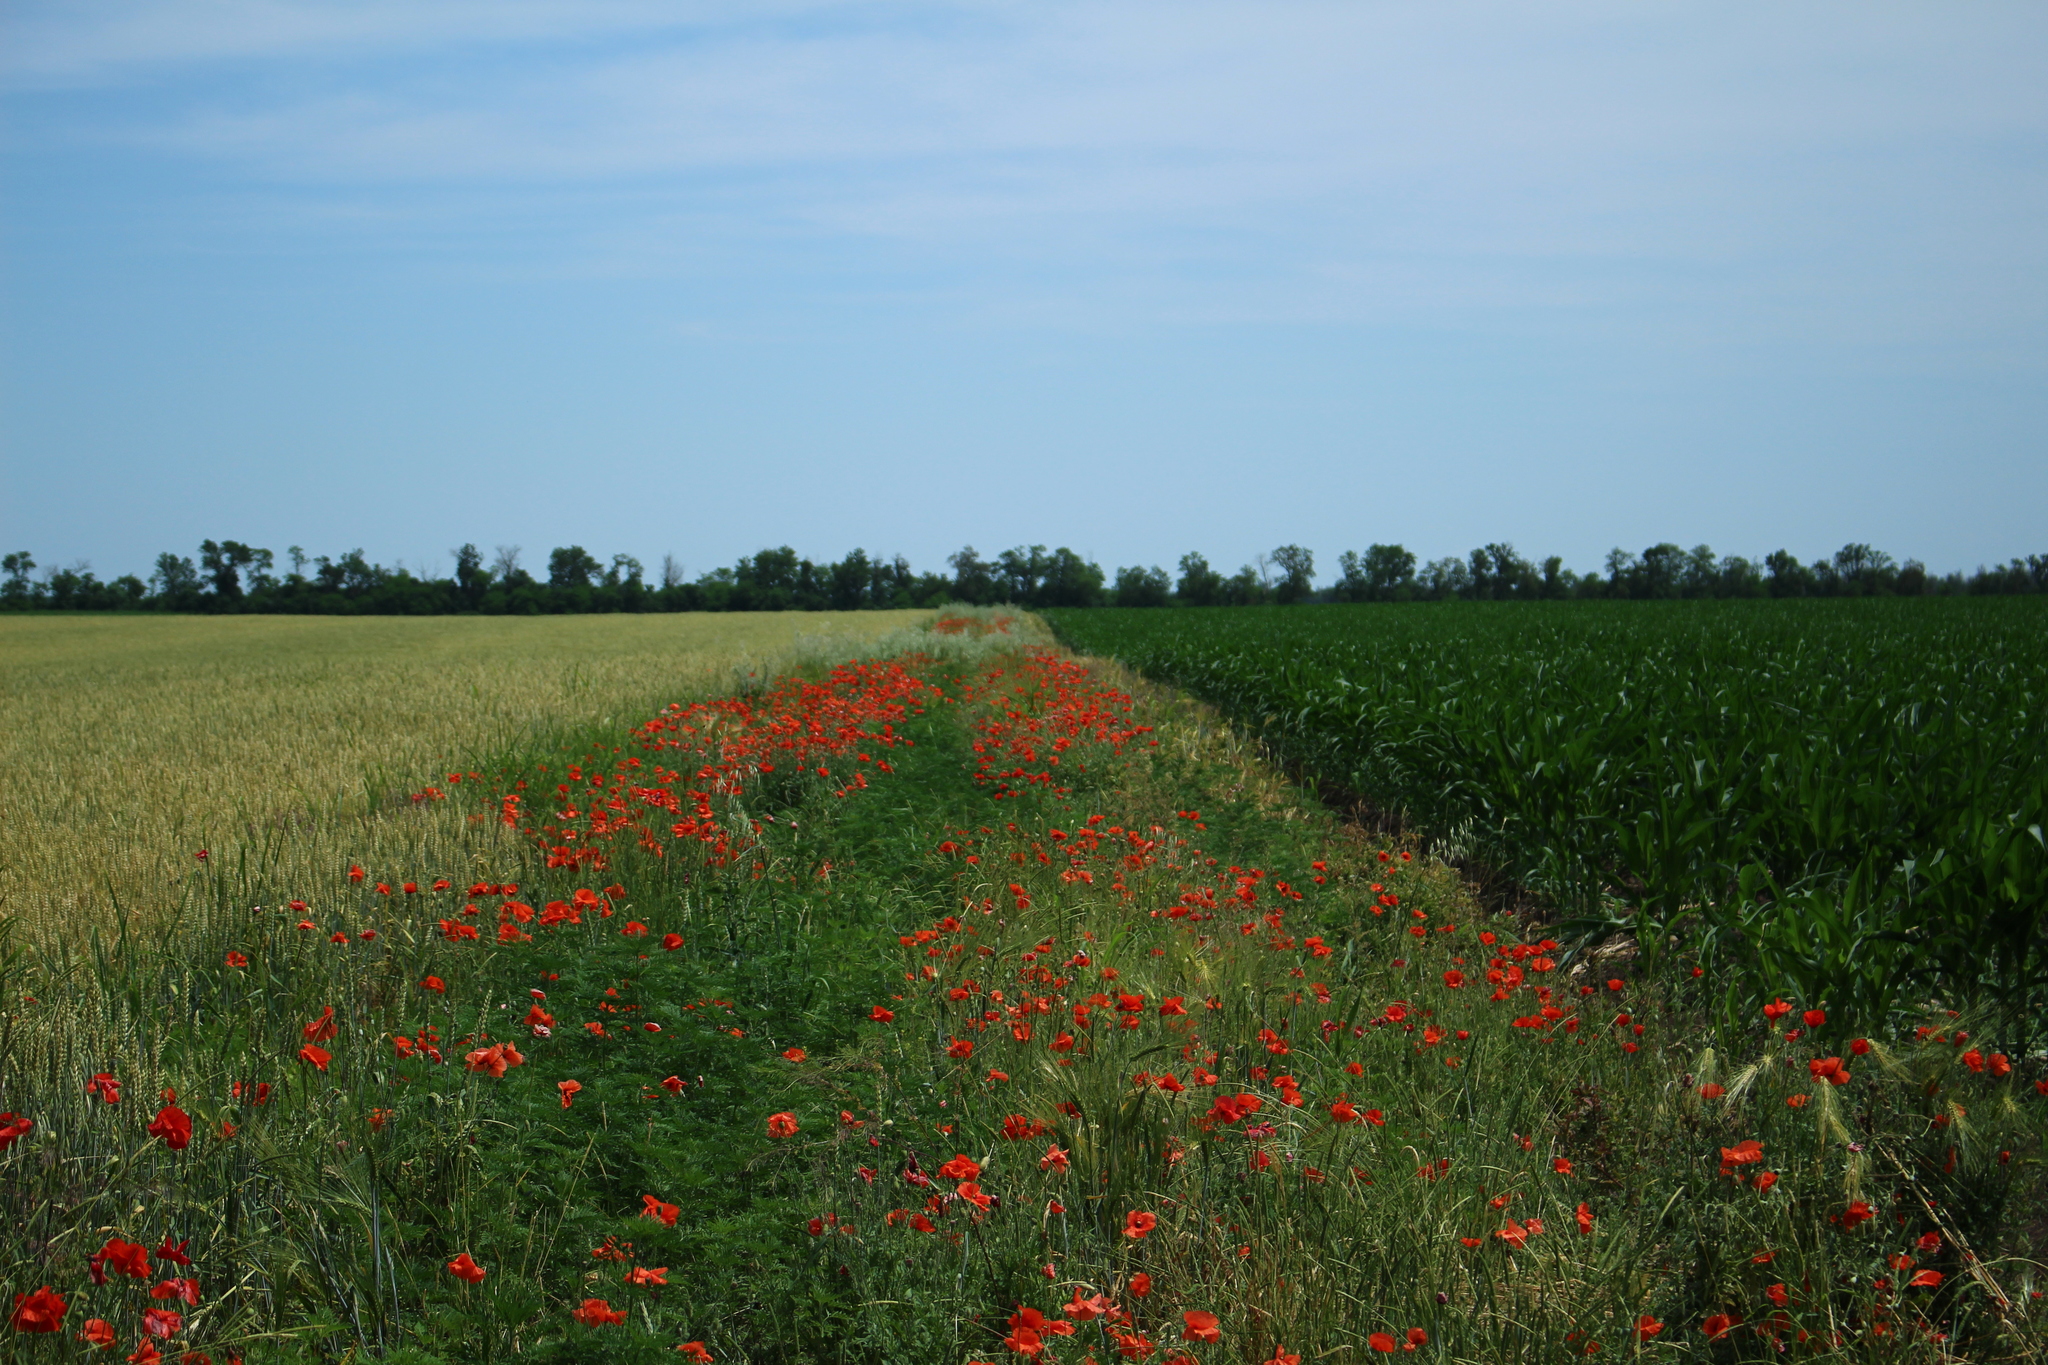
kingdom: Plantae
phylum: Tracheophyta
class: Magnoliopsida
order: Ranunculales
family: Papaveraceae
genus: Papaver
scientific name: Papaver rhoeas
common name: Corn poppy
